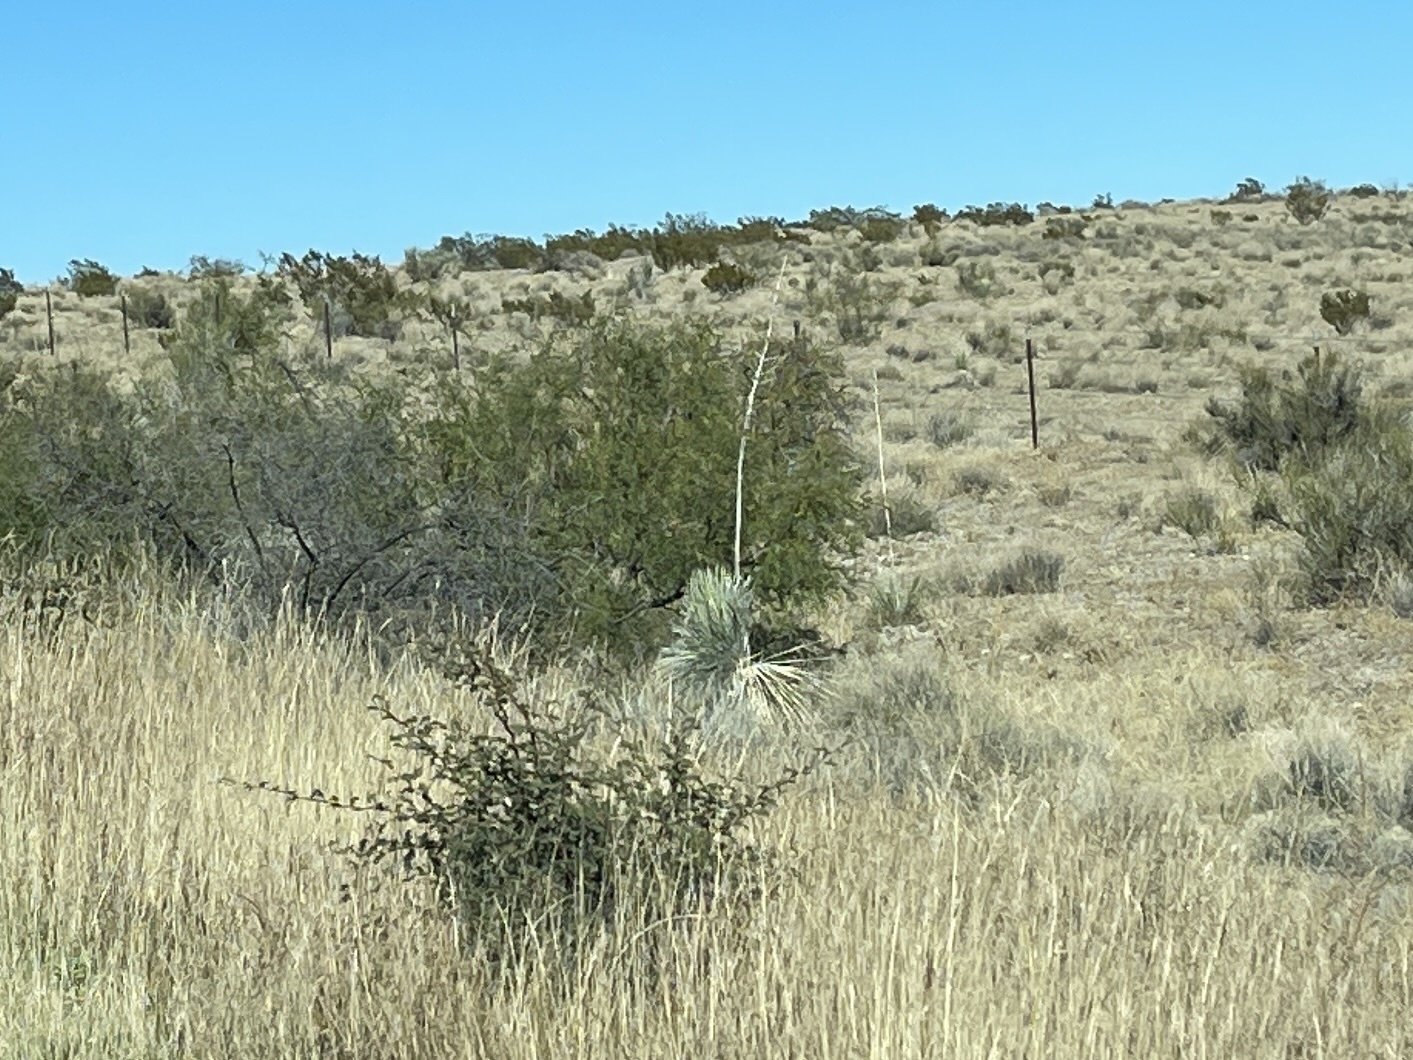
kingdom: Plantae
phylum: Tracheophyta
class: Liliopsida
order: Asparagales
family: Asparagaceae
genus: Yucca
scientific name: Yucca elata
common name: Palmella
